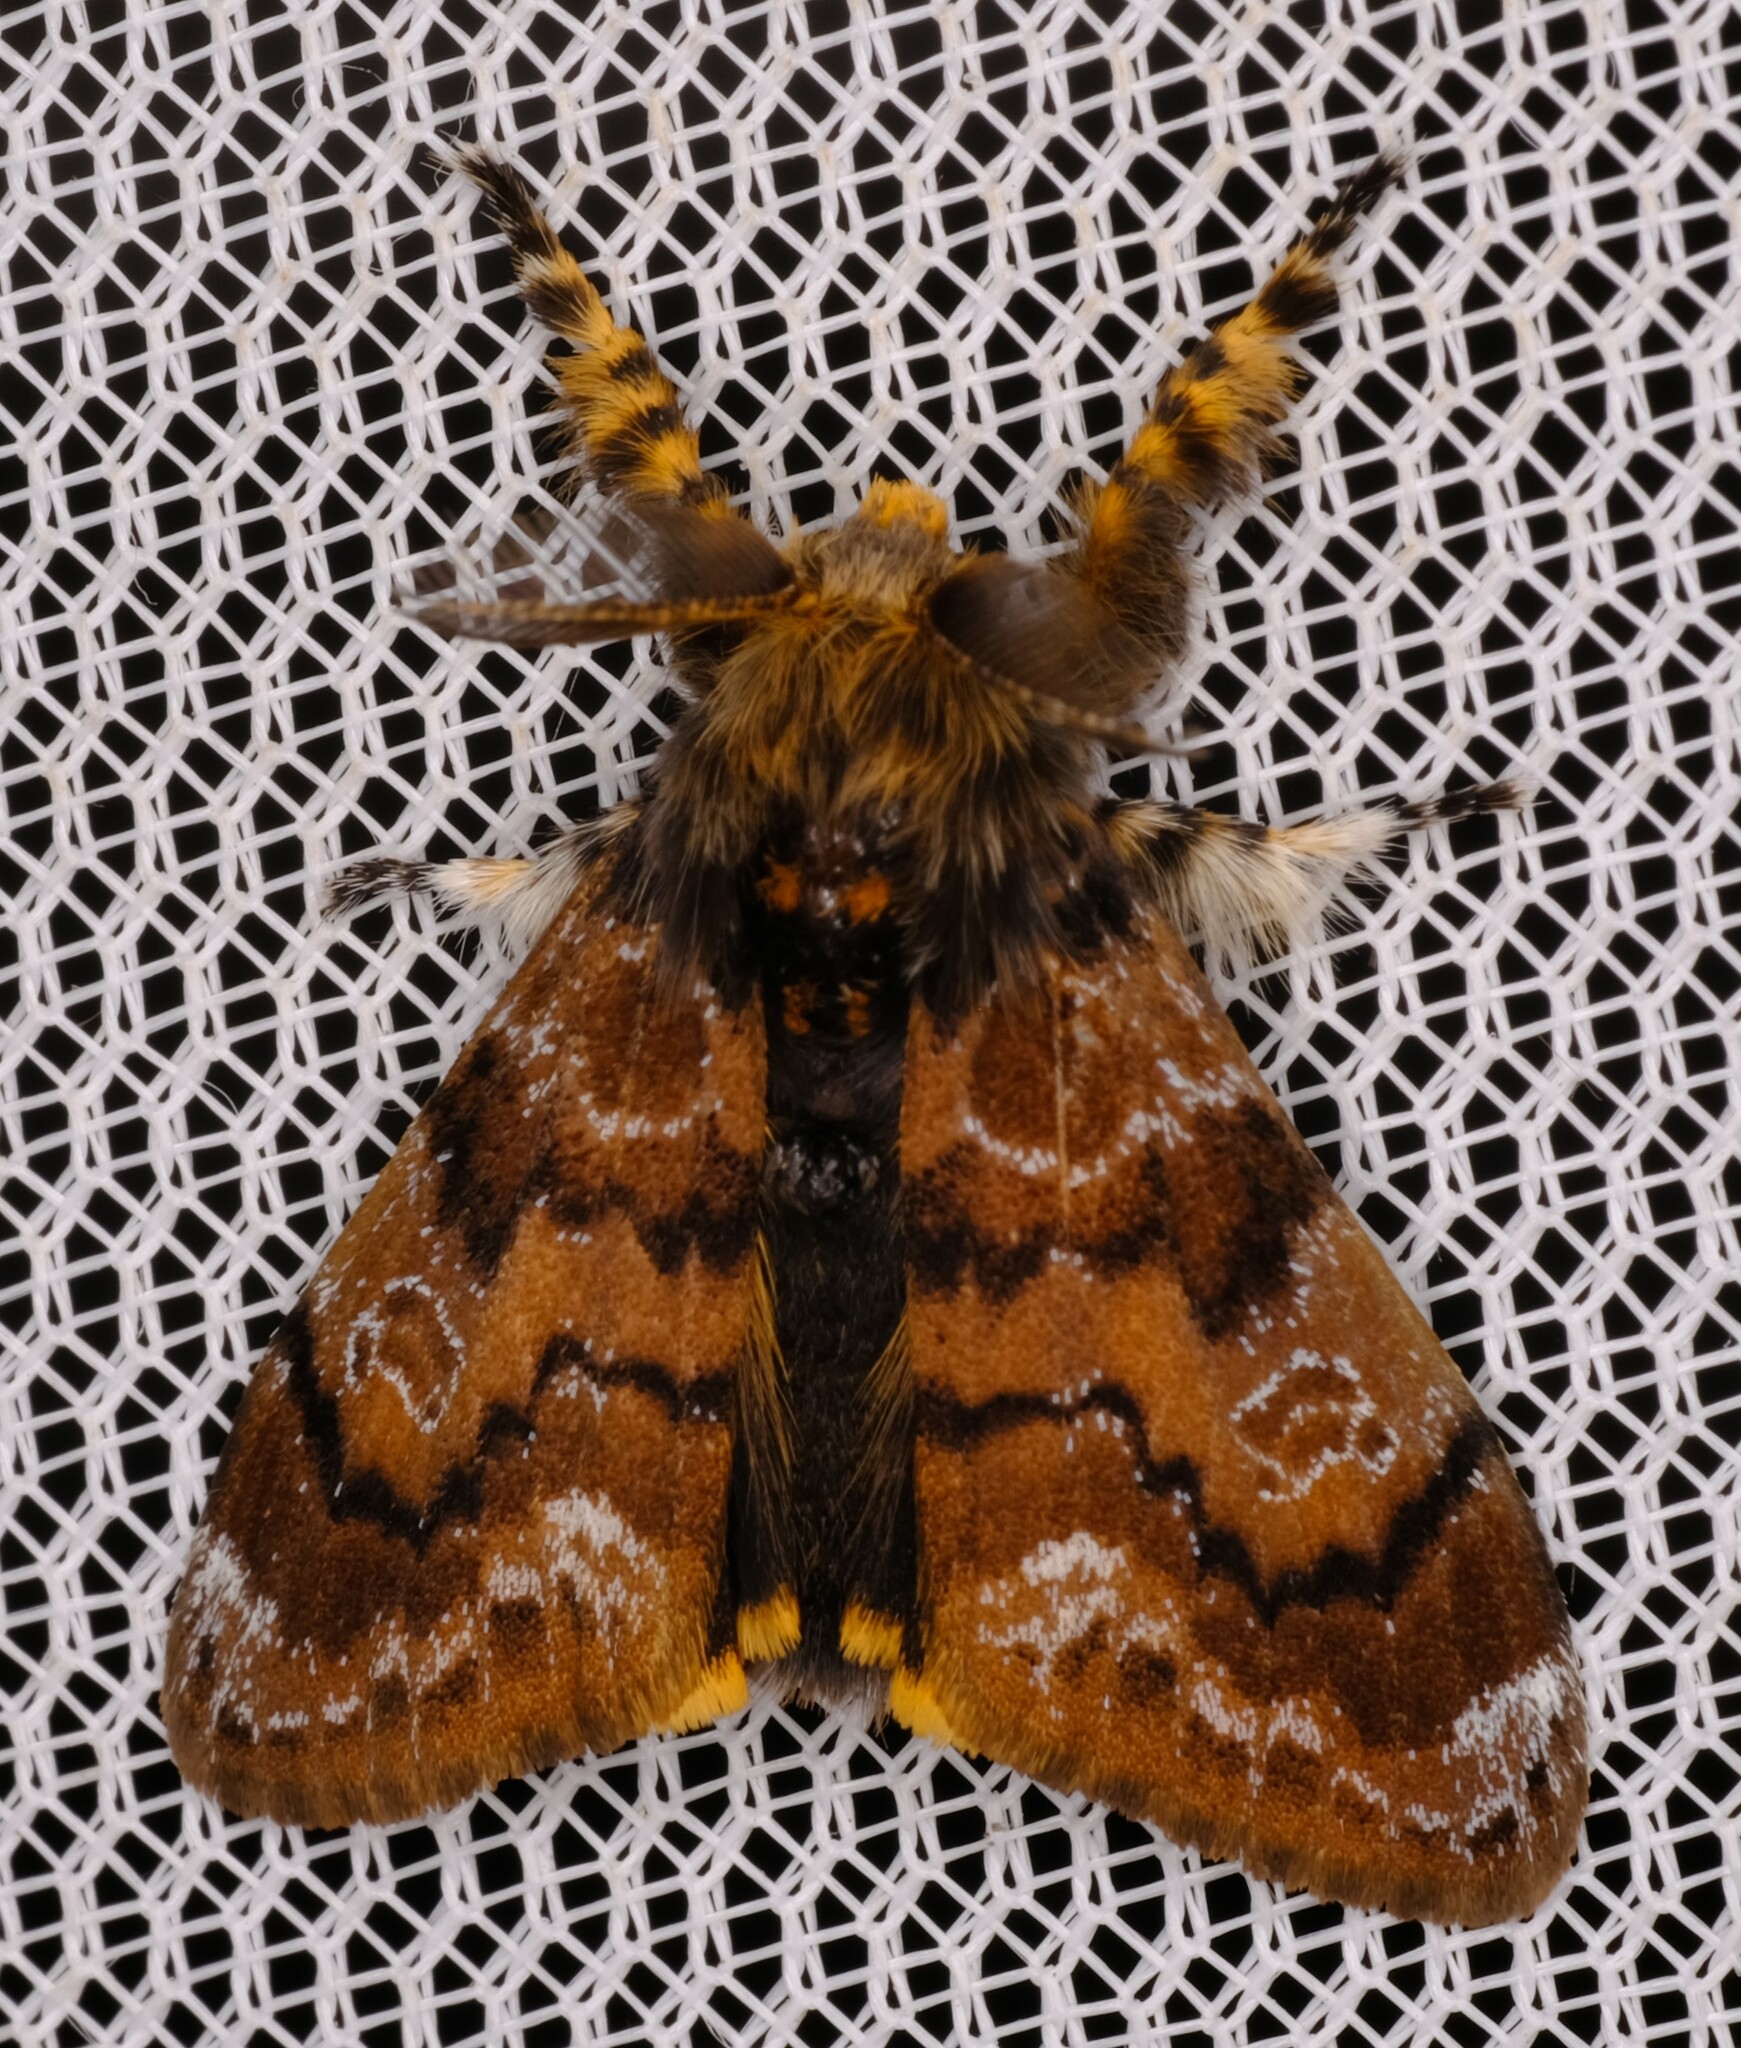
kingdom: Animalia
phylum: Arthropoda
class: Insecta
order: Lepidoptera
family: Erebidae
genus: Orgyia
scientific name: Orgyia
